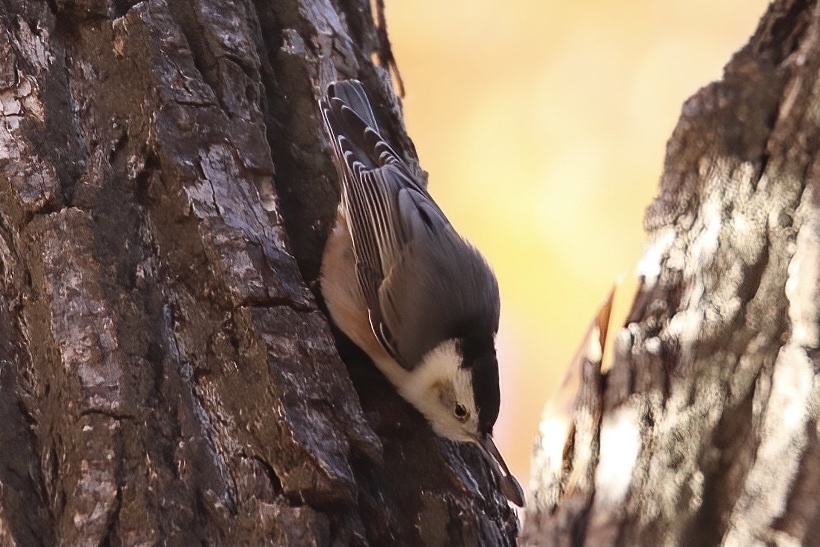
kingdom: Animalia
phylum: Chordata
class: Aves
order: Passeriformes
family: Sittidae
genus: Sitta
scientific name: Sitta carolinensis
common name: White-breasted nuthatch
